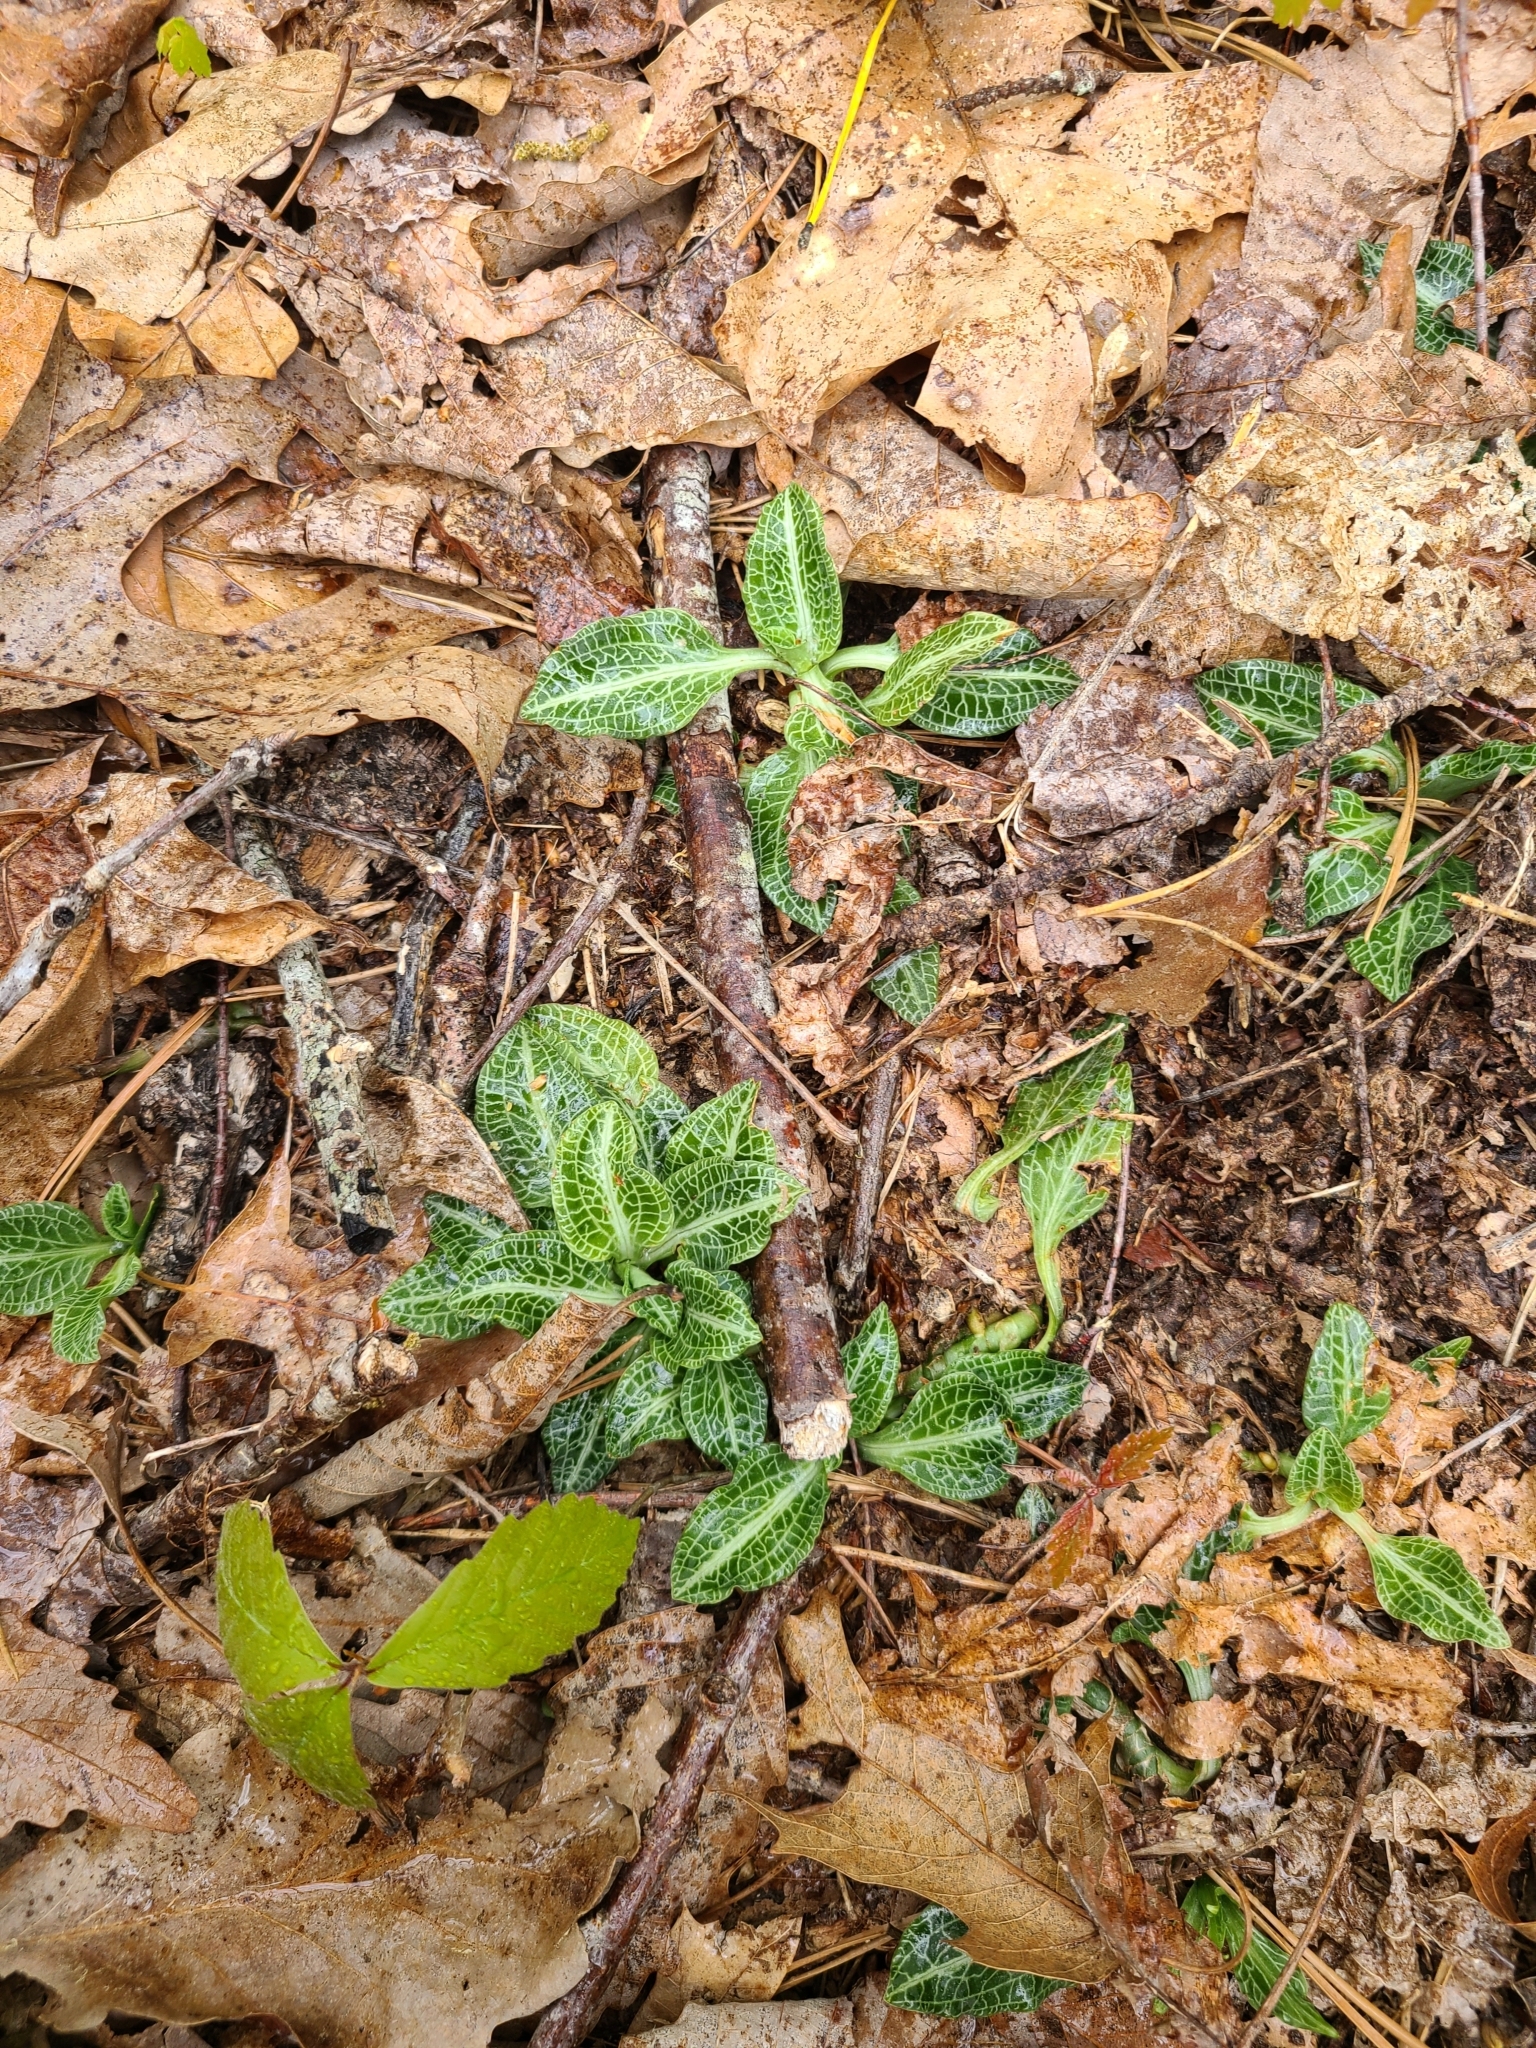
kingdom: Plantae
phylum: Tracheophyta
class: Liliopsida
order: Asparagales
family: Orchidaceae
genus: Goodyera
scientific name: Goodyera pubescens
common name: Downy rattlesnake-plantain
